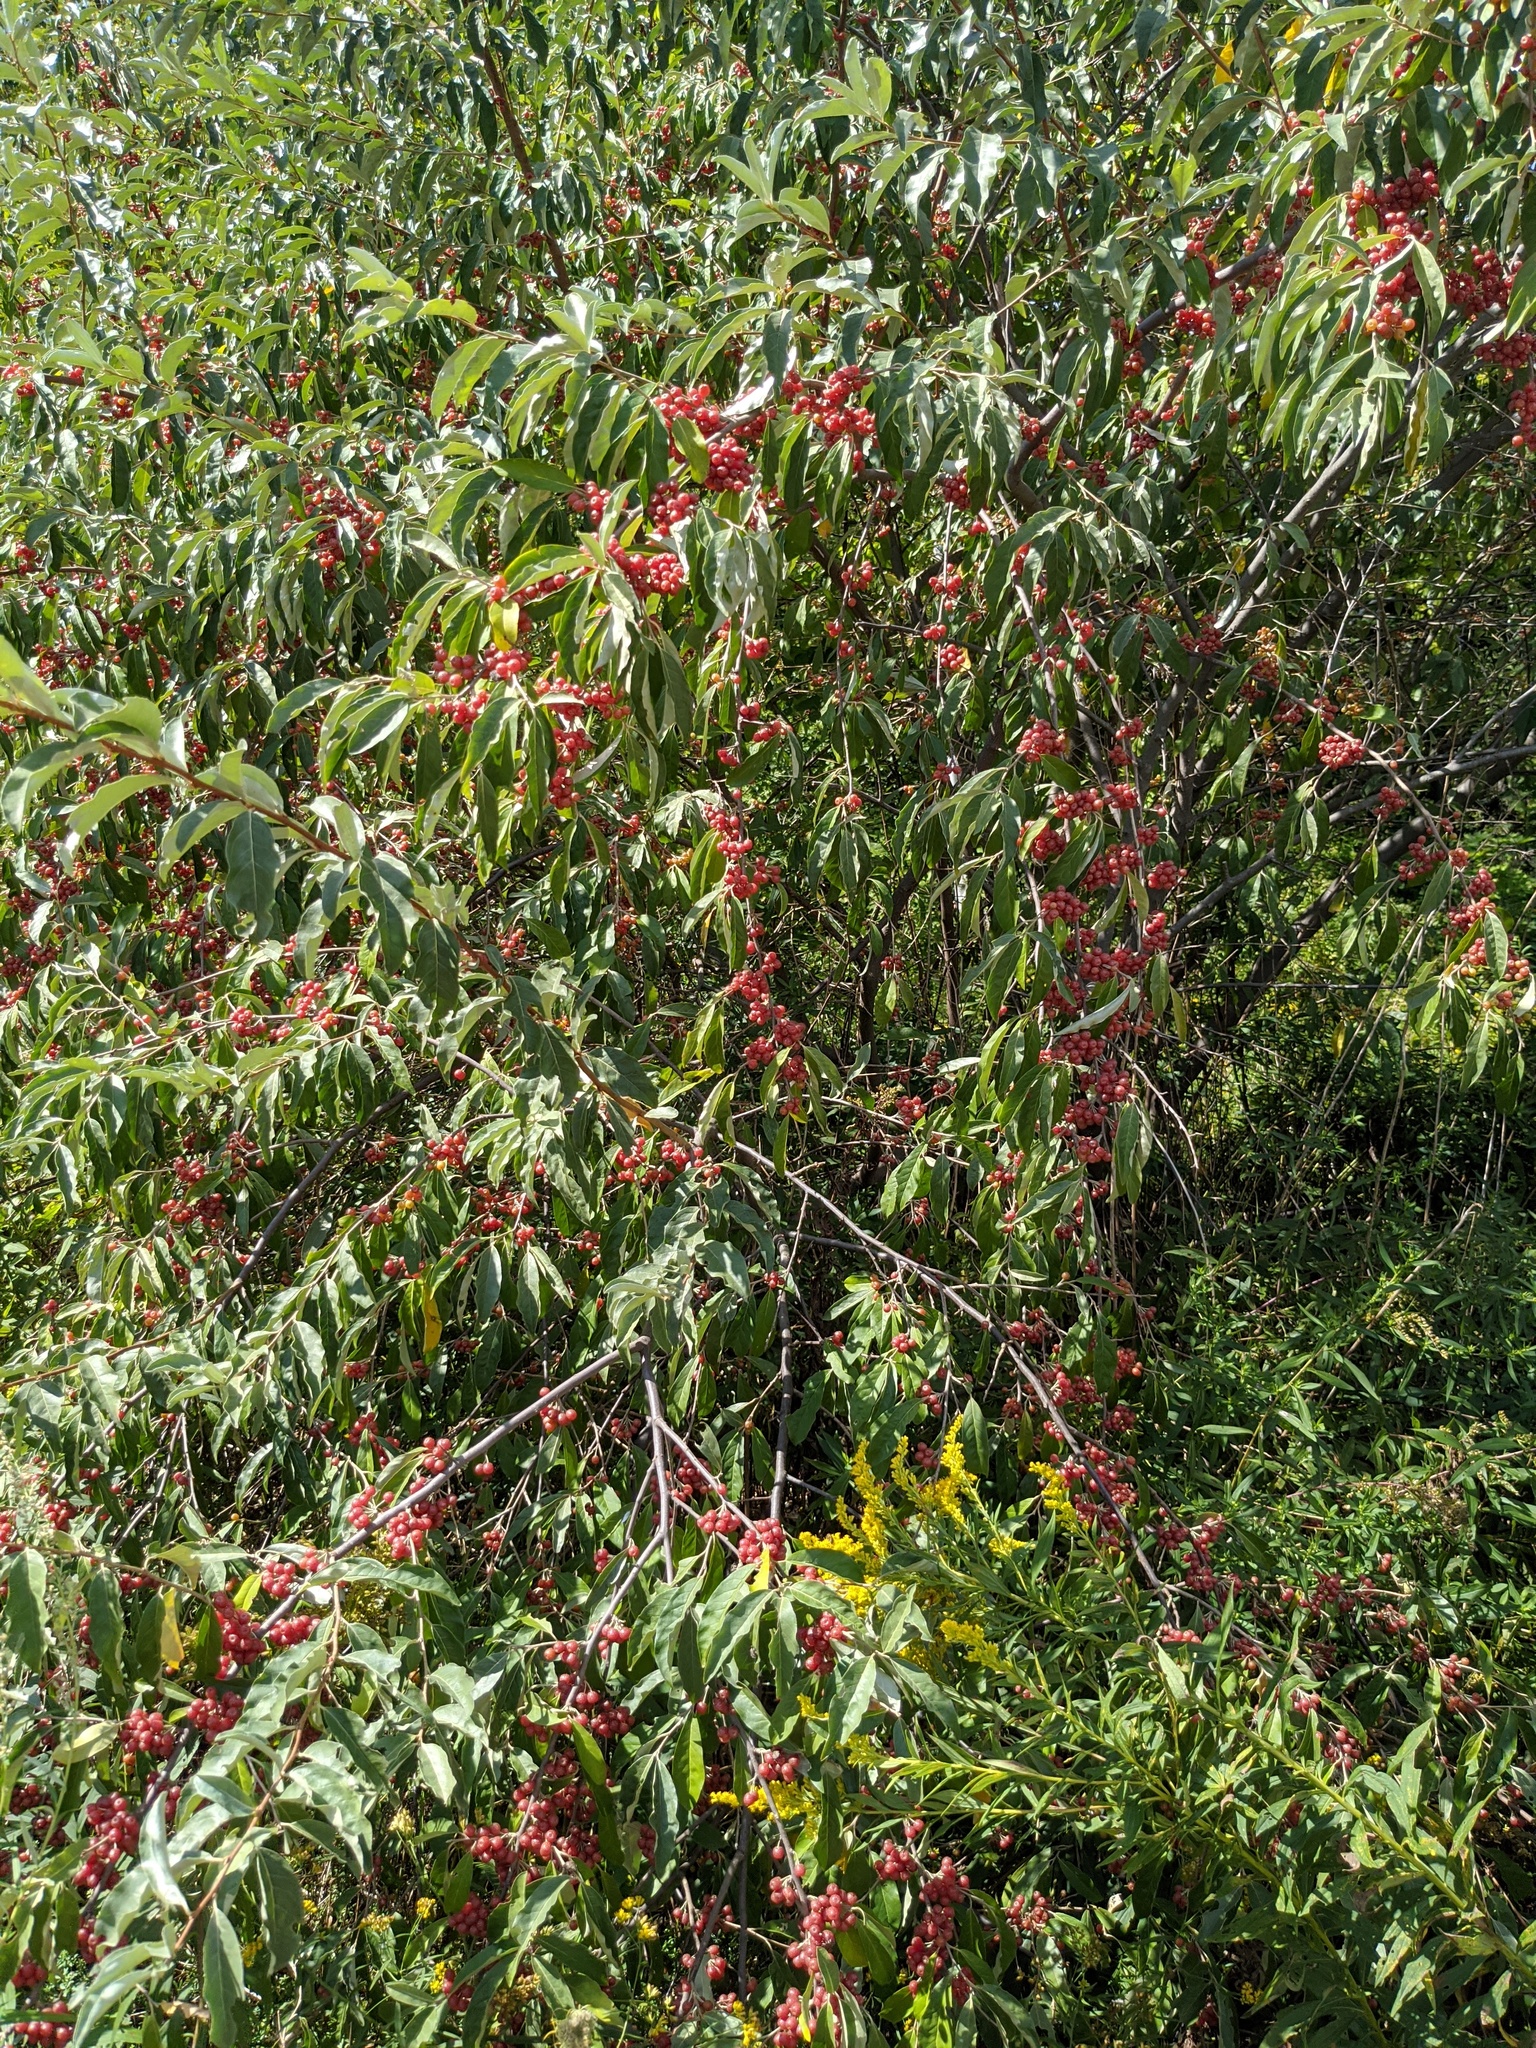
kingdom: Plantae
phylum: Tracheophyta
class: Magnoliopsida
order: Rosales
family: Elaeagnaceae
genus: Elaeagnus
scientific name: Elaeagnus umbellata
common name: Autumn olive
